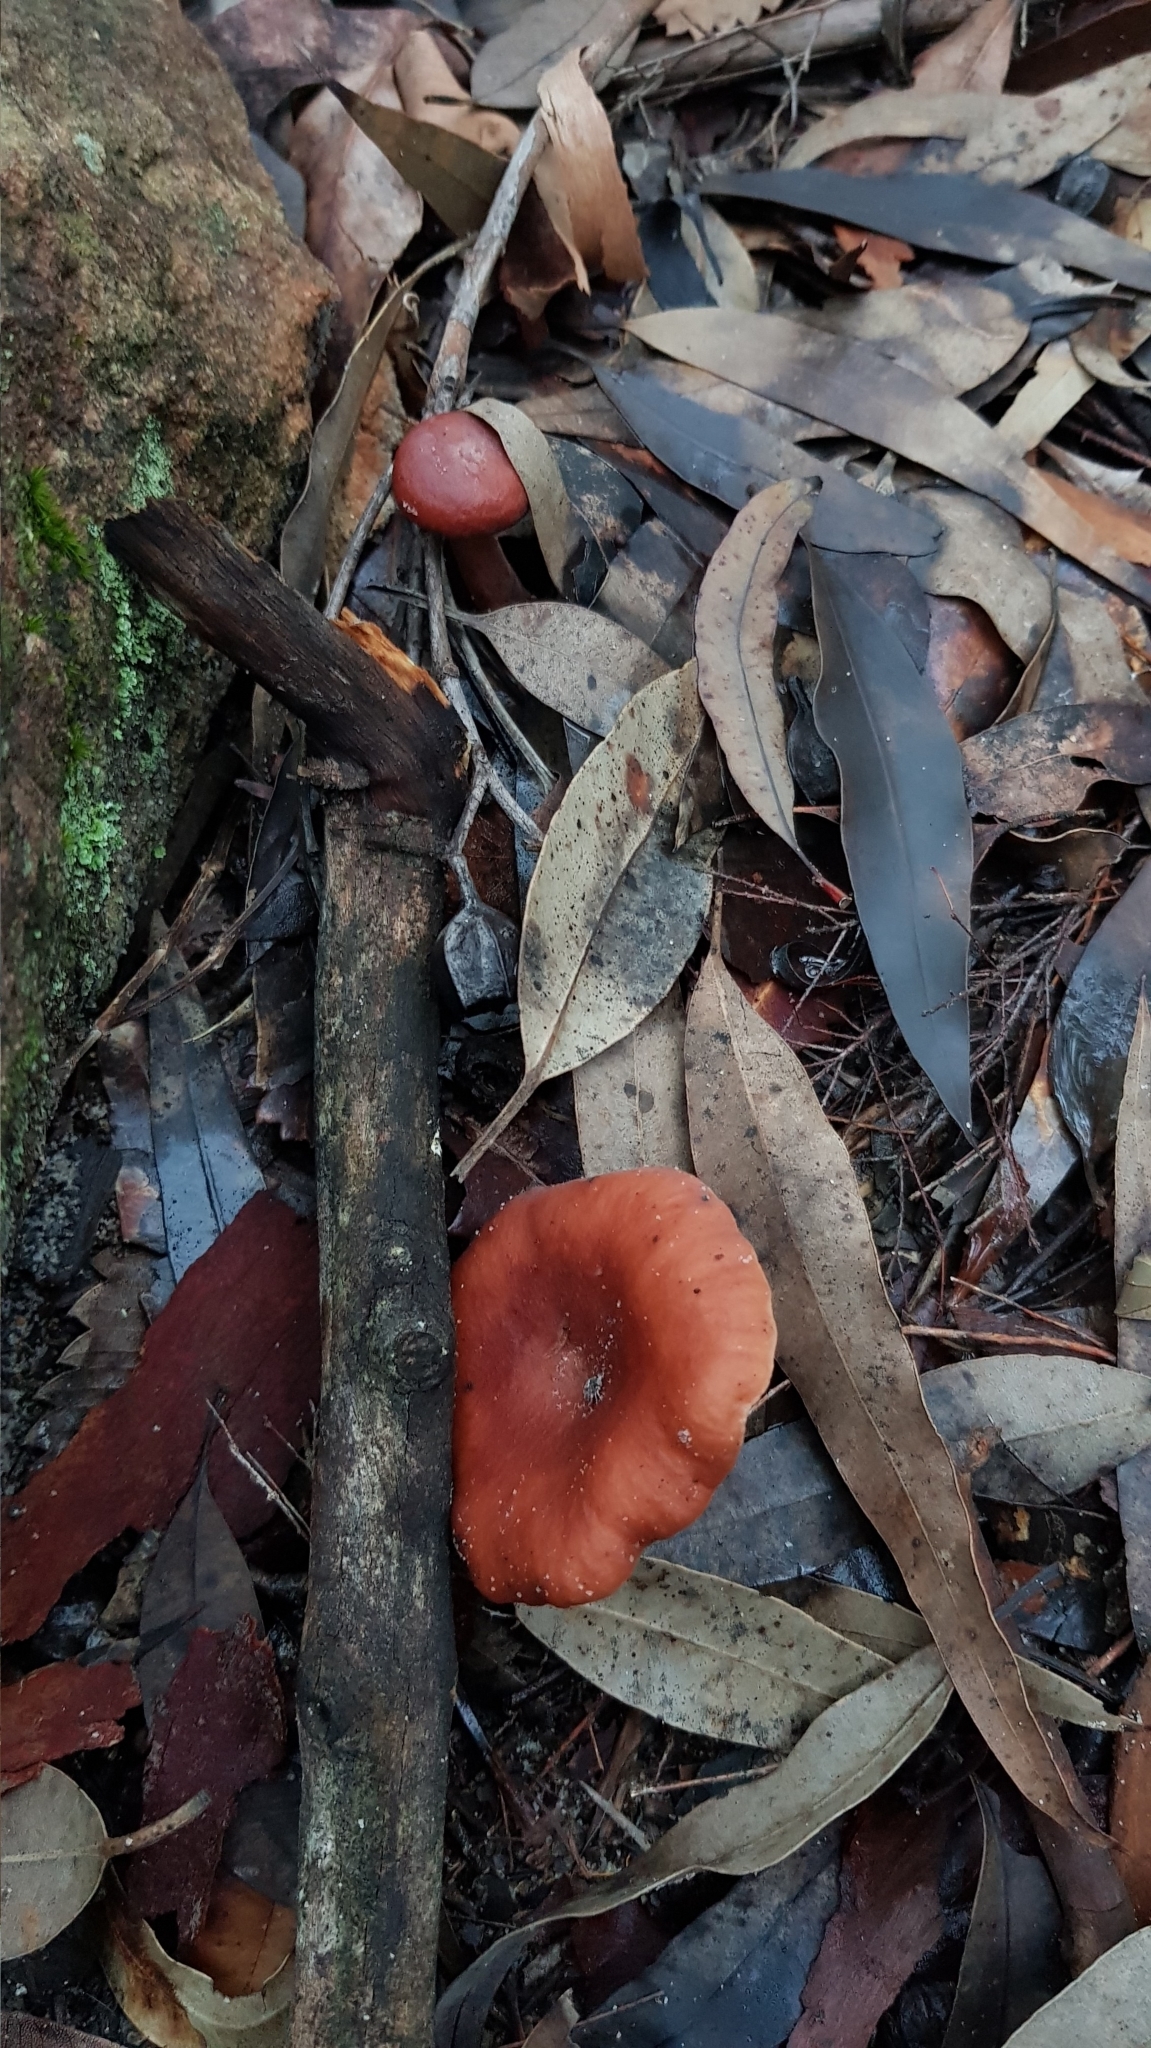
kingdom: Fungi
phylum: Basidiomycota
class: Agaricomycetes
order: Russulales
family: Russulaceae
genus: Lactarius
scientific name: Lactarius eucalypti
